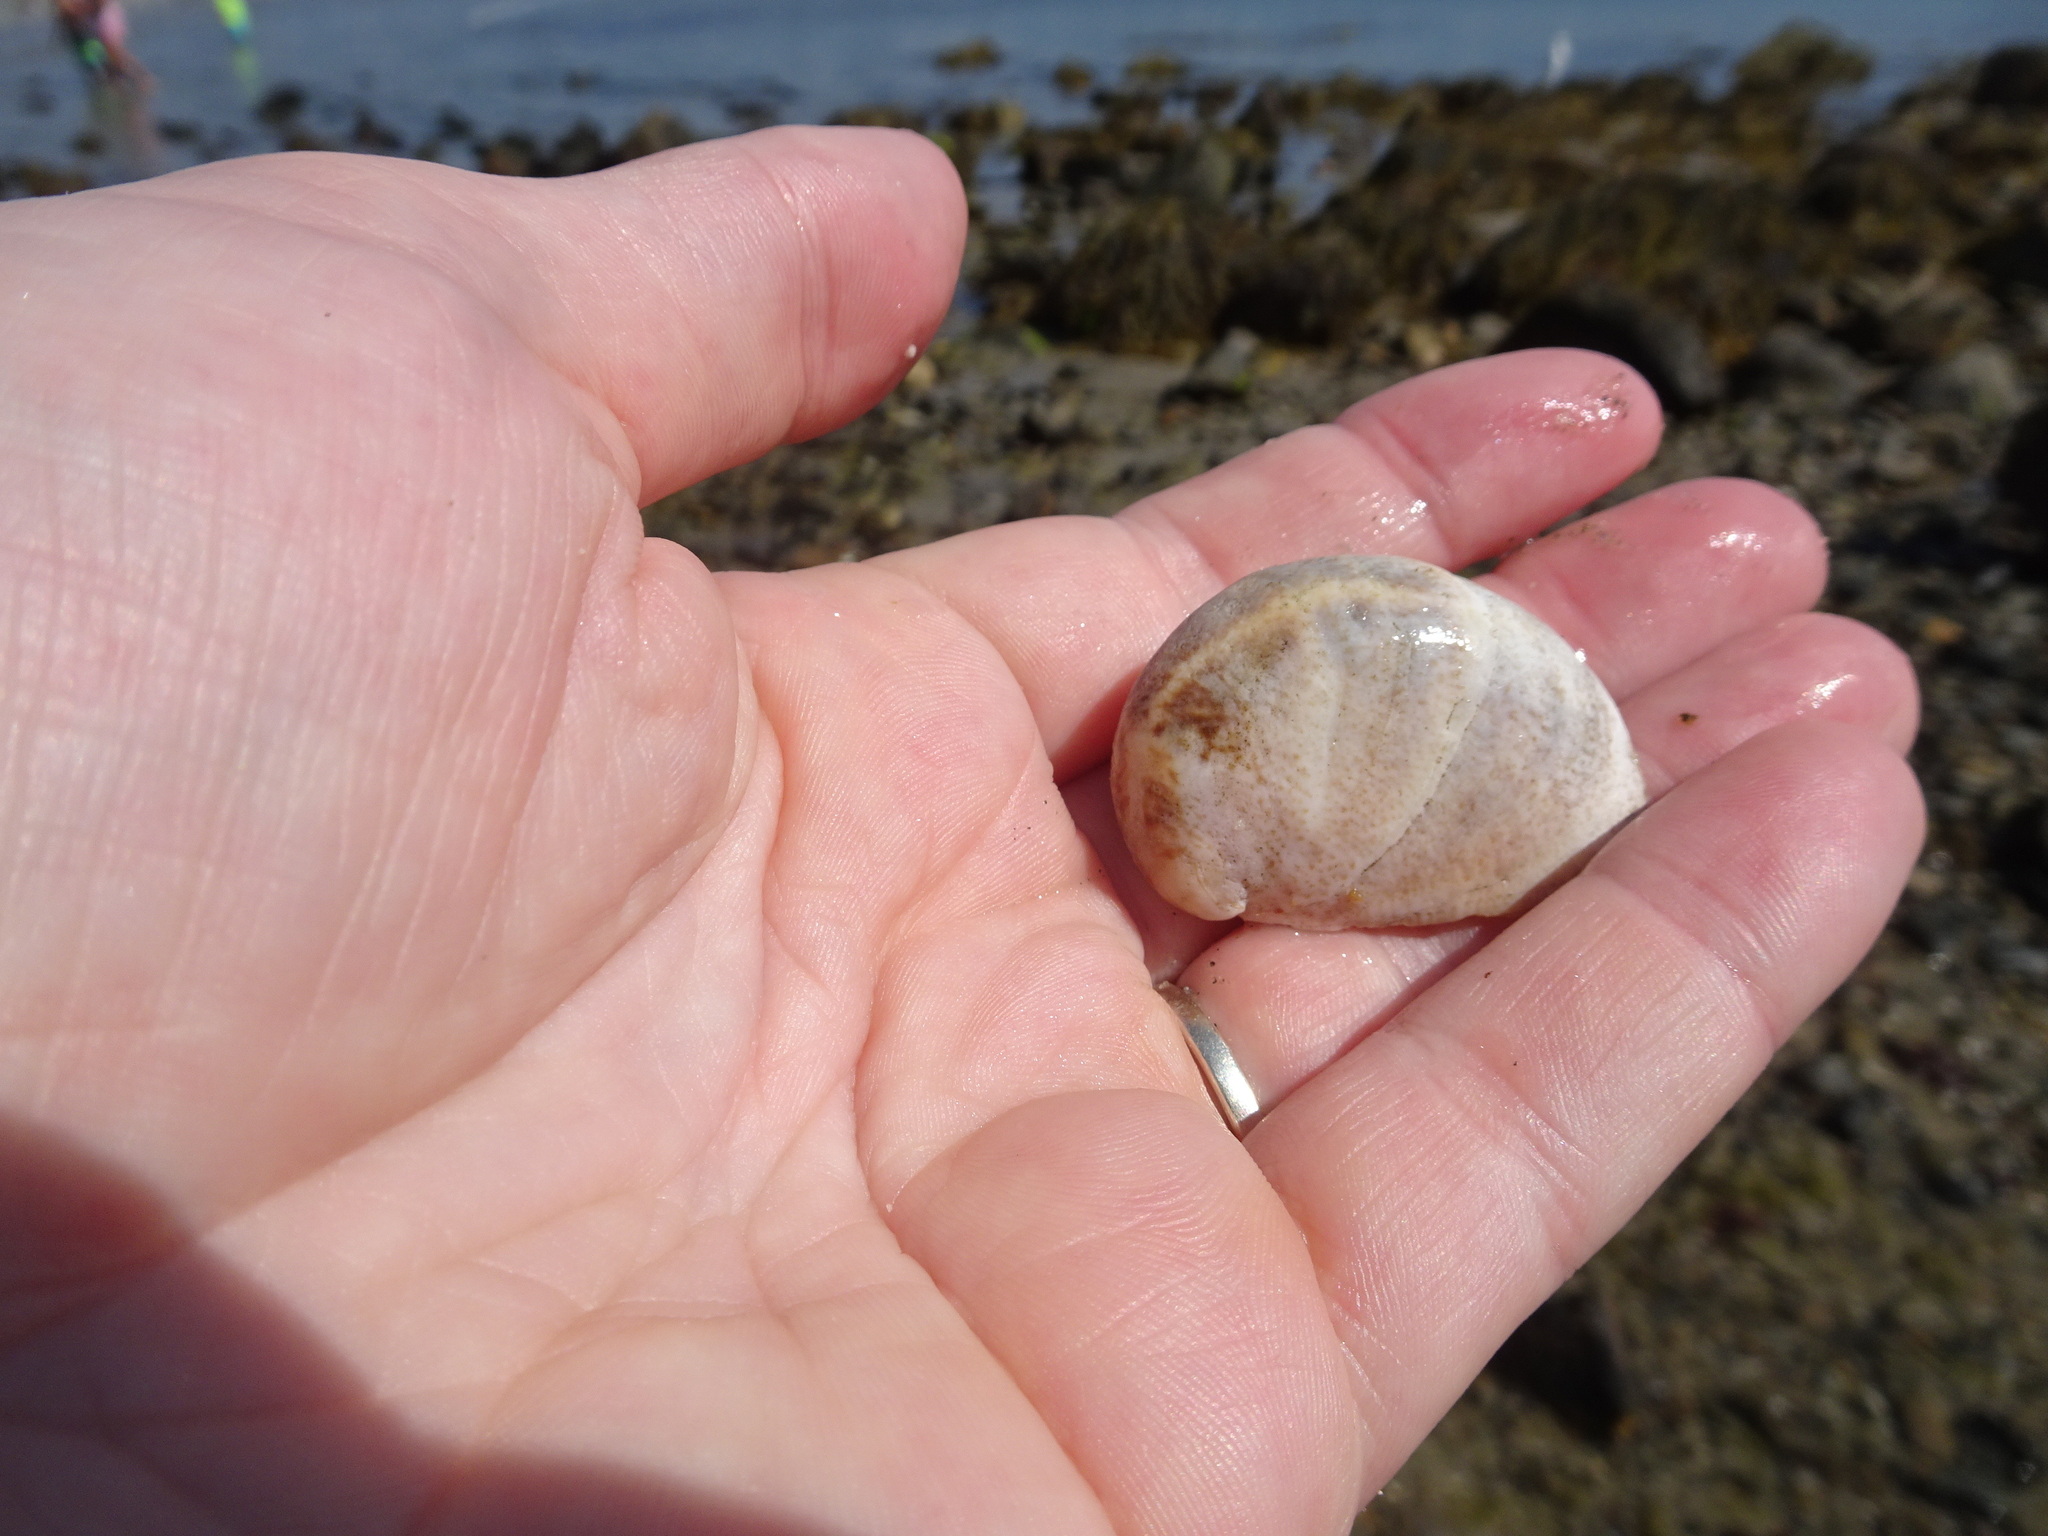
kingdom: Animalia
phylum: Mollusca
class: Gastropoda
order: Littorinimorpha
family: Calyptraeidae
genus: Crepidula
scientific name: Crepidula fornicata
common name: Slipper limpet
